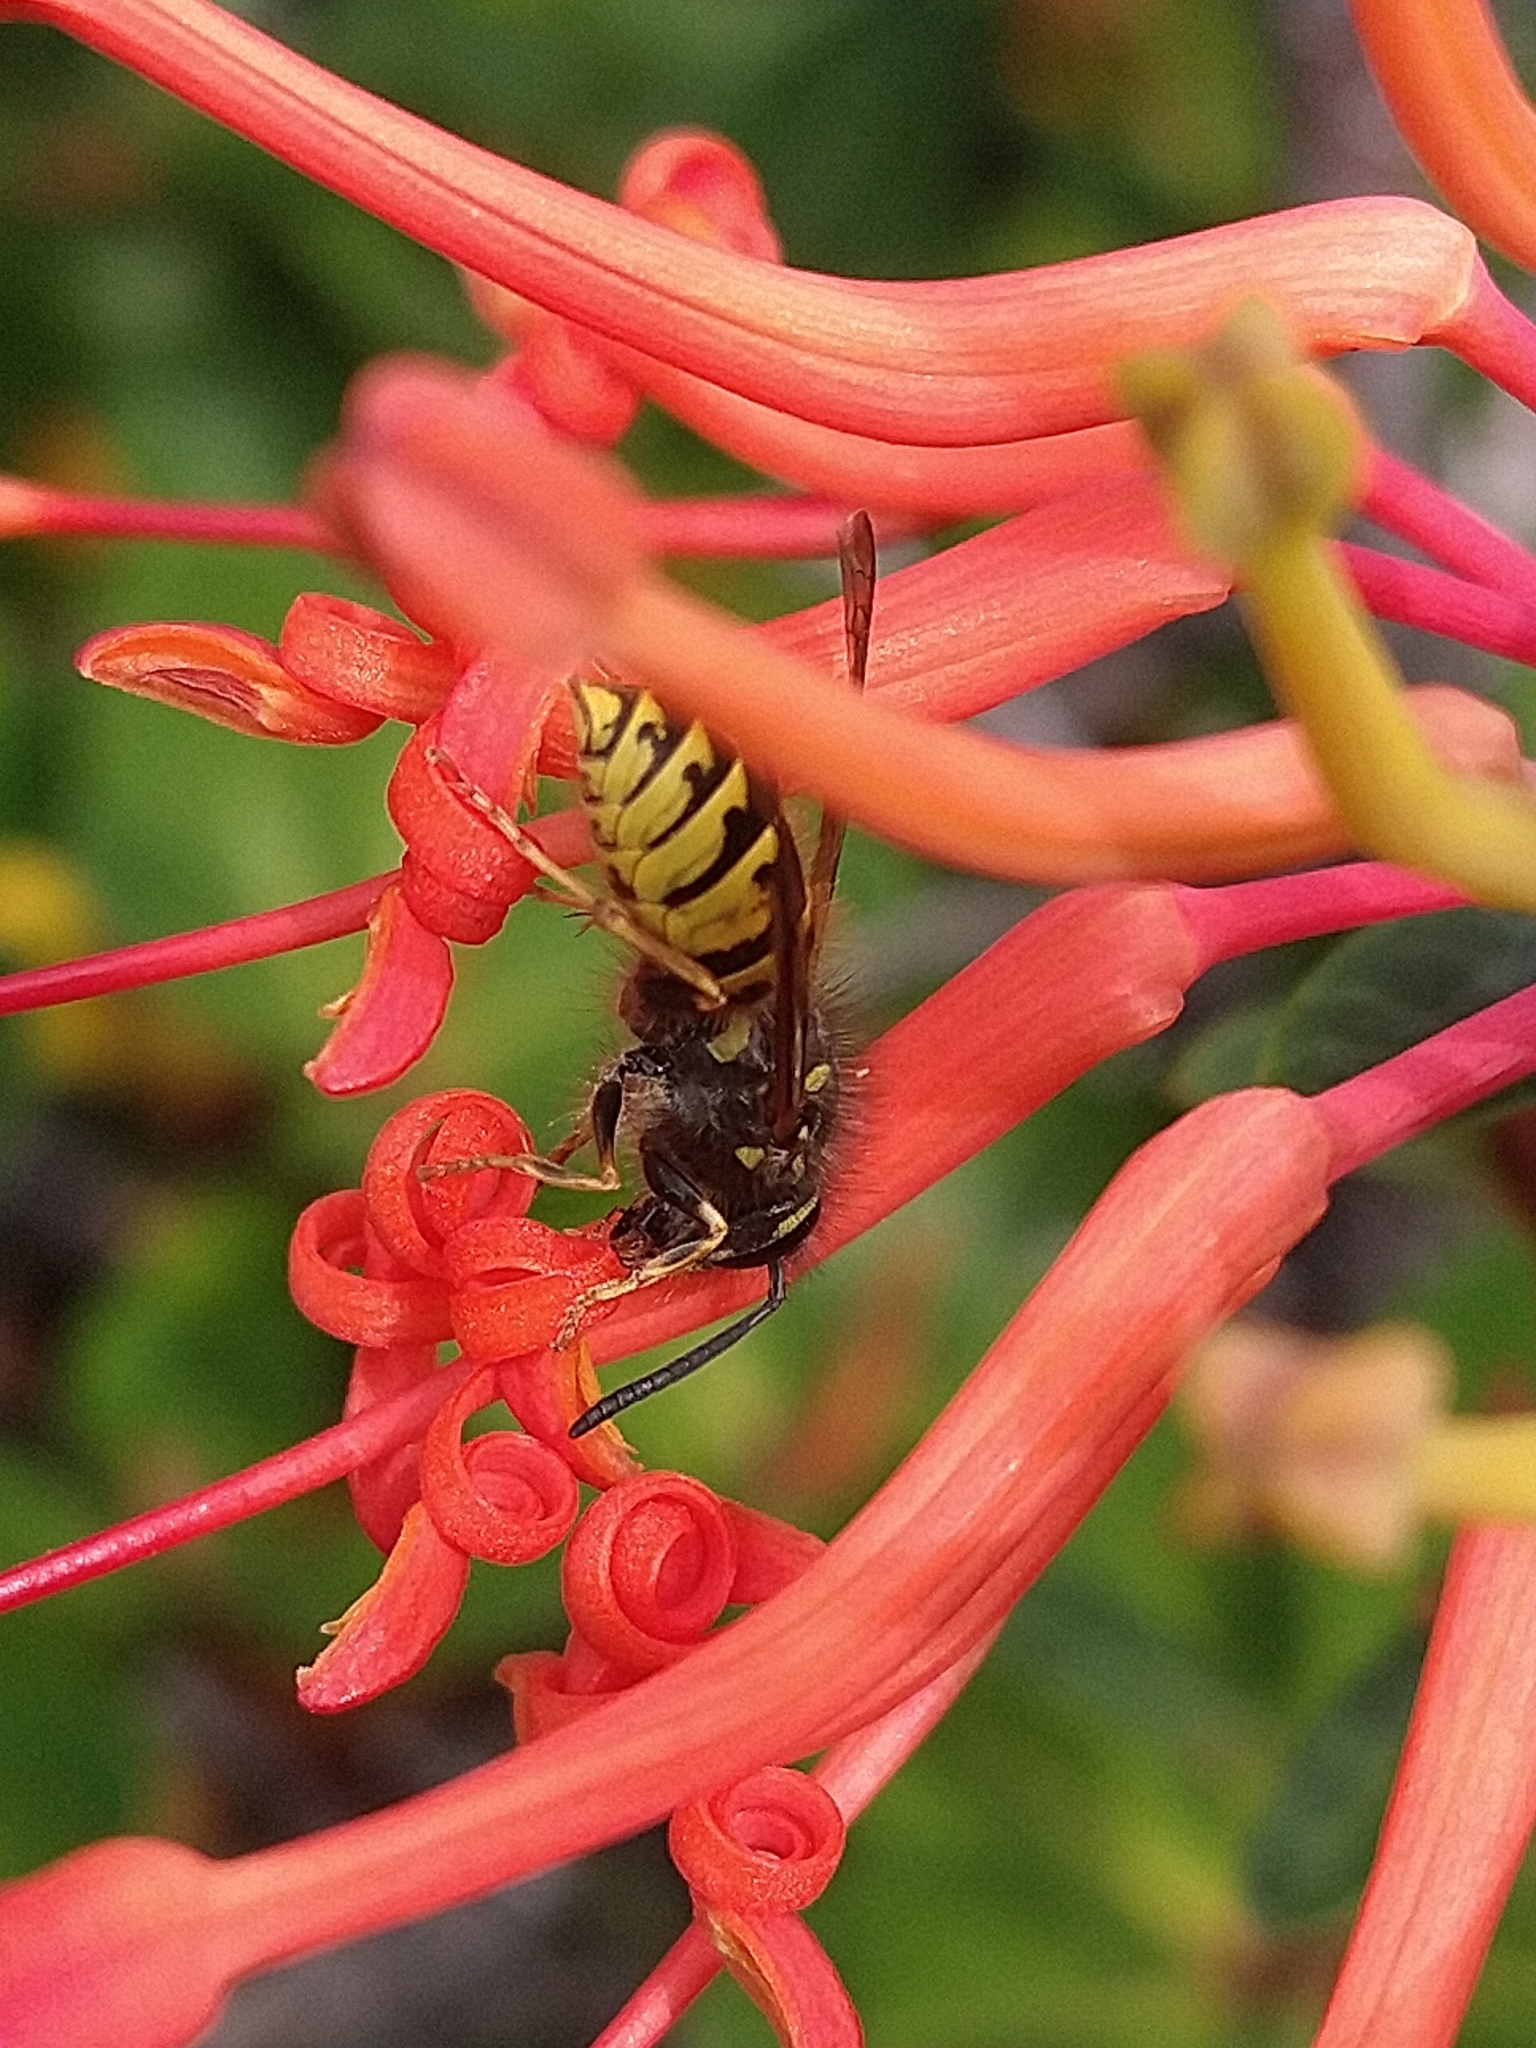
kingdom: Animalia
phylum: Arthropoda
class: Insecta
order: Hymenoptera
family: Vespidae
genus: Vespula
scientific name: Vespula vulgaris
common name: Common wasp
